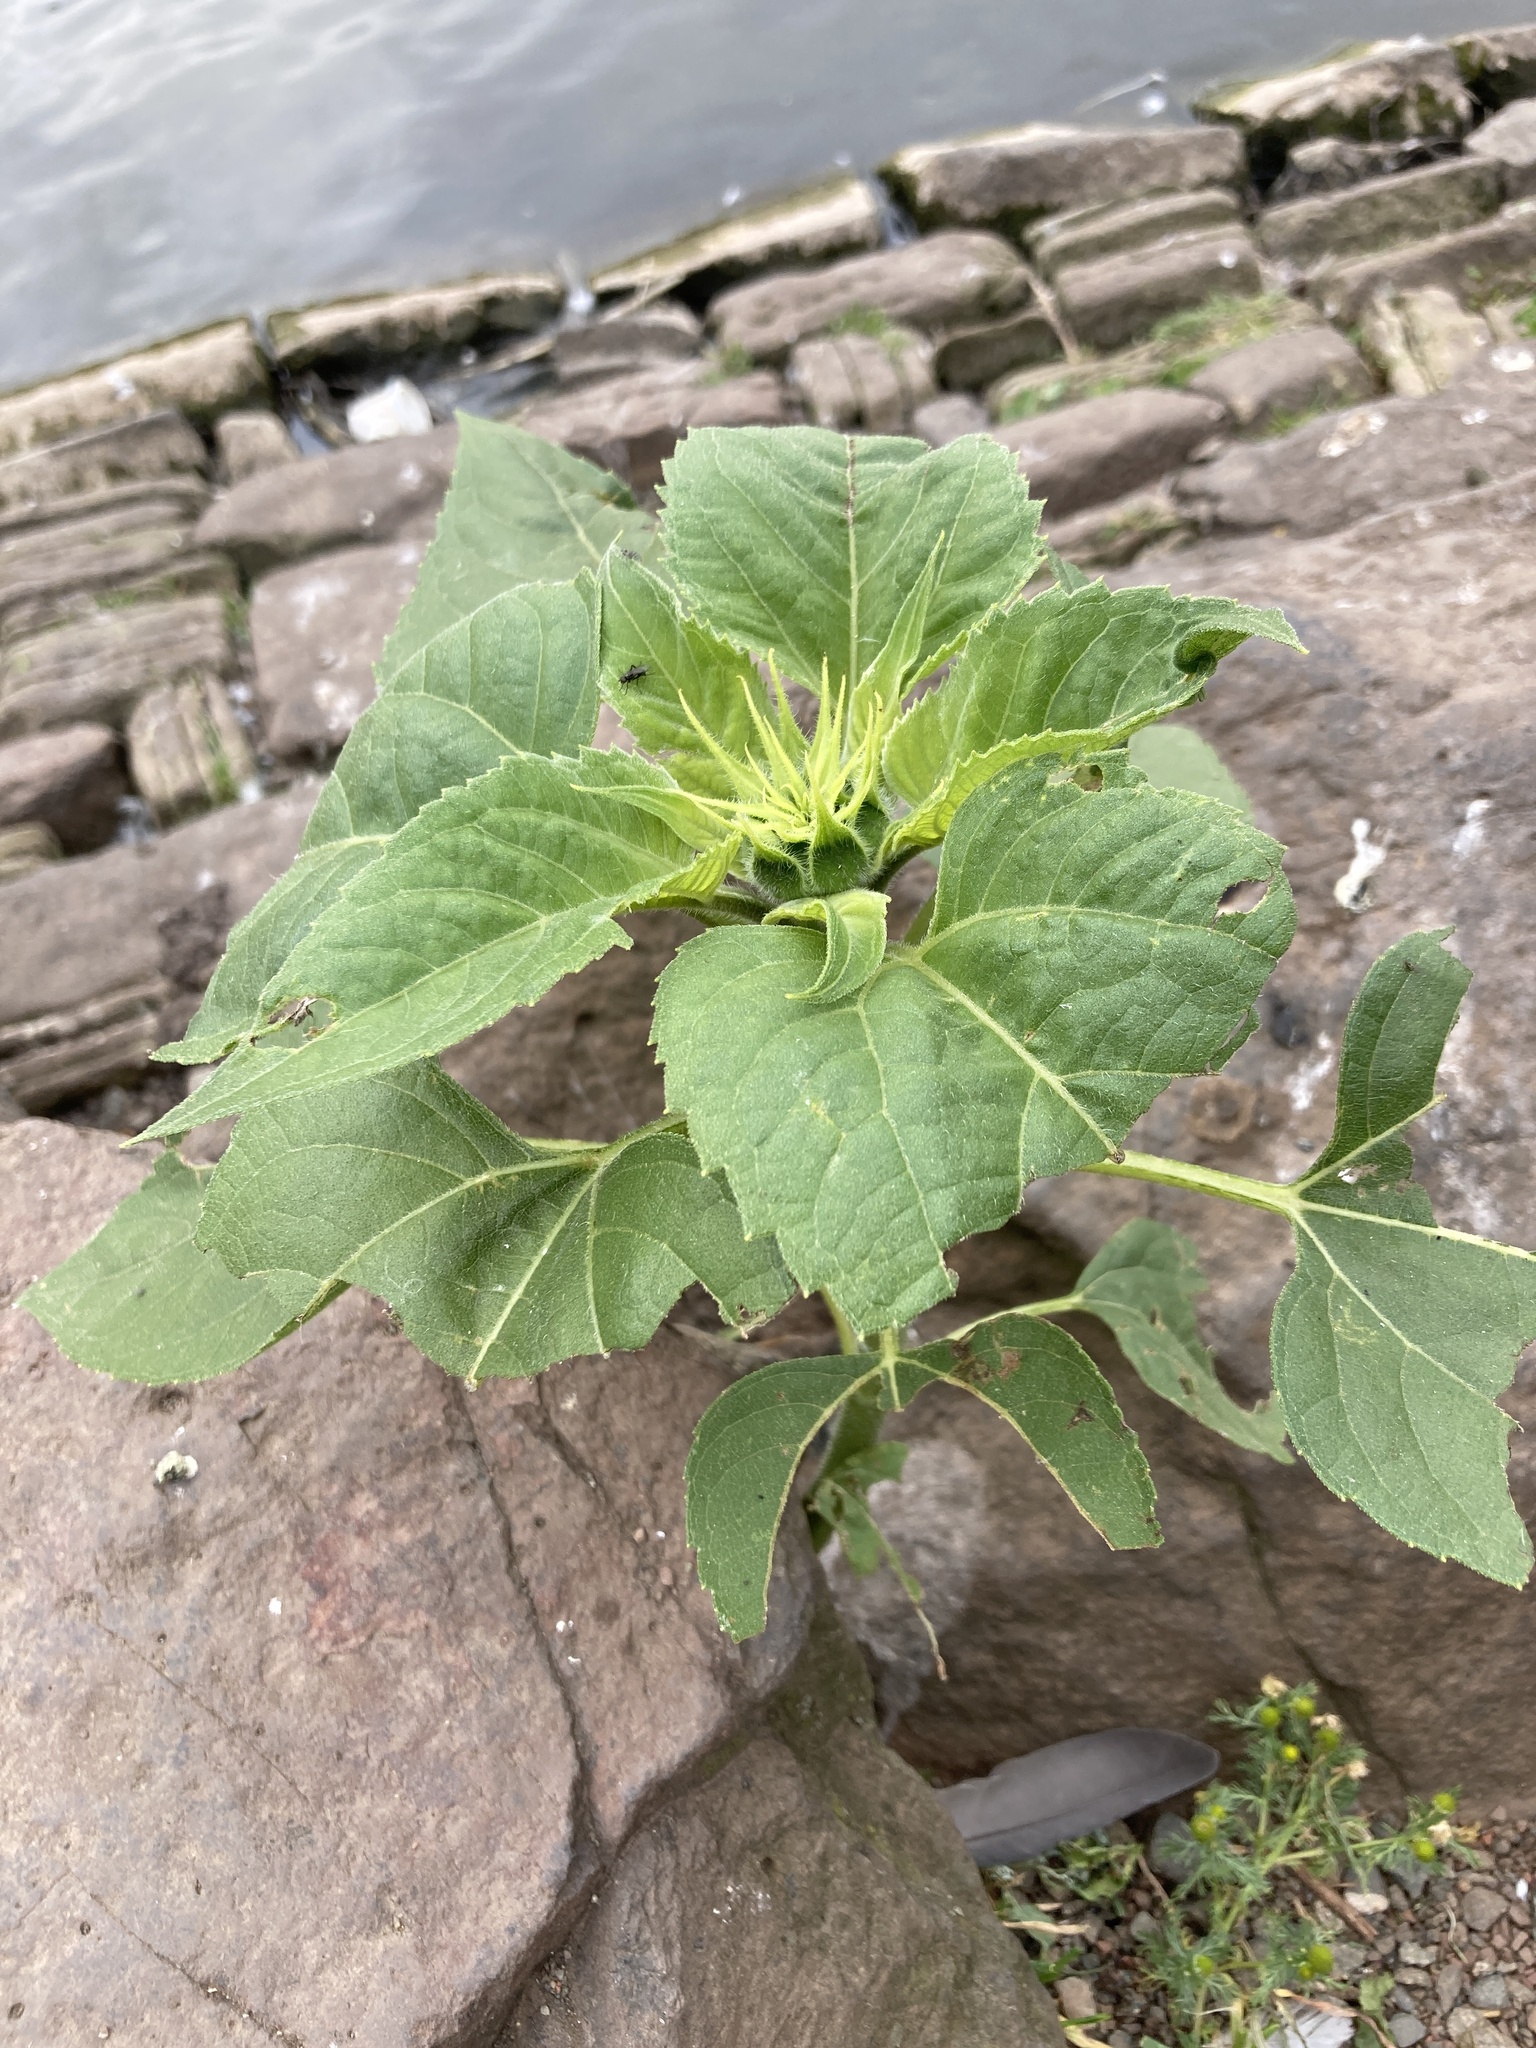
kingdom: Plantae
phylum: Tracheophyta
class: Magnoliopsida
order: Asterales
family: Asteraceae
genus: Helianthus
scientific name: Helianthus annuus
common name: Sunflower
